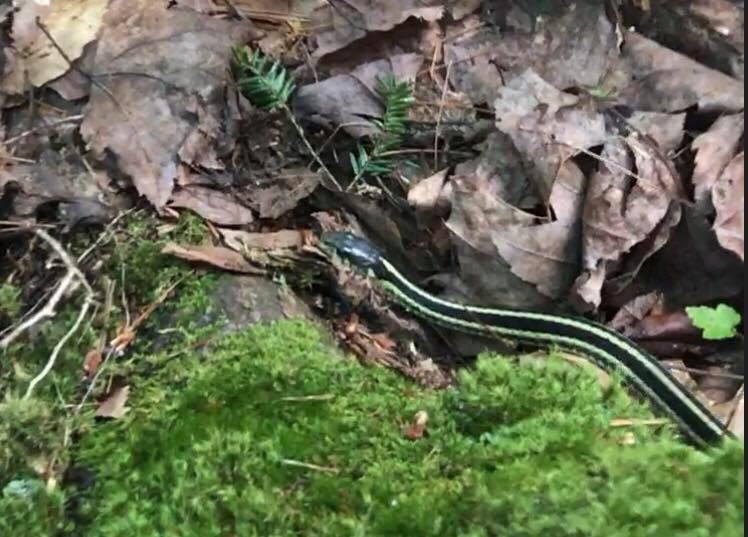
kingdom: Animalia
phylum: Chordata
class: Squamata
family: Colubridae
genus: Thamnophis
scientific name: Thamnophis sirtalis
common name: Common garter snake
